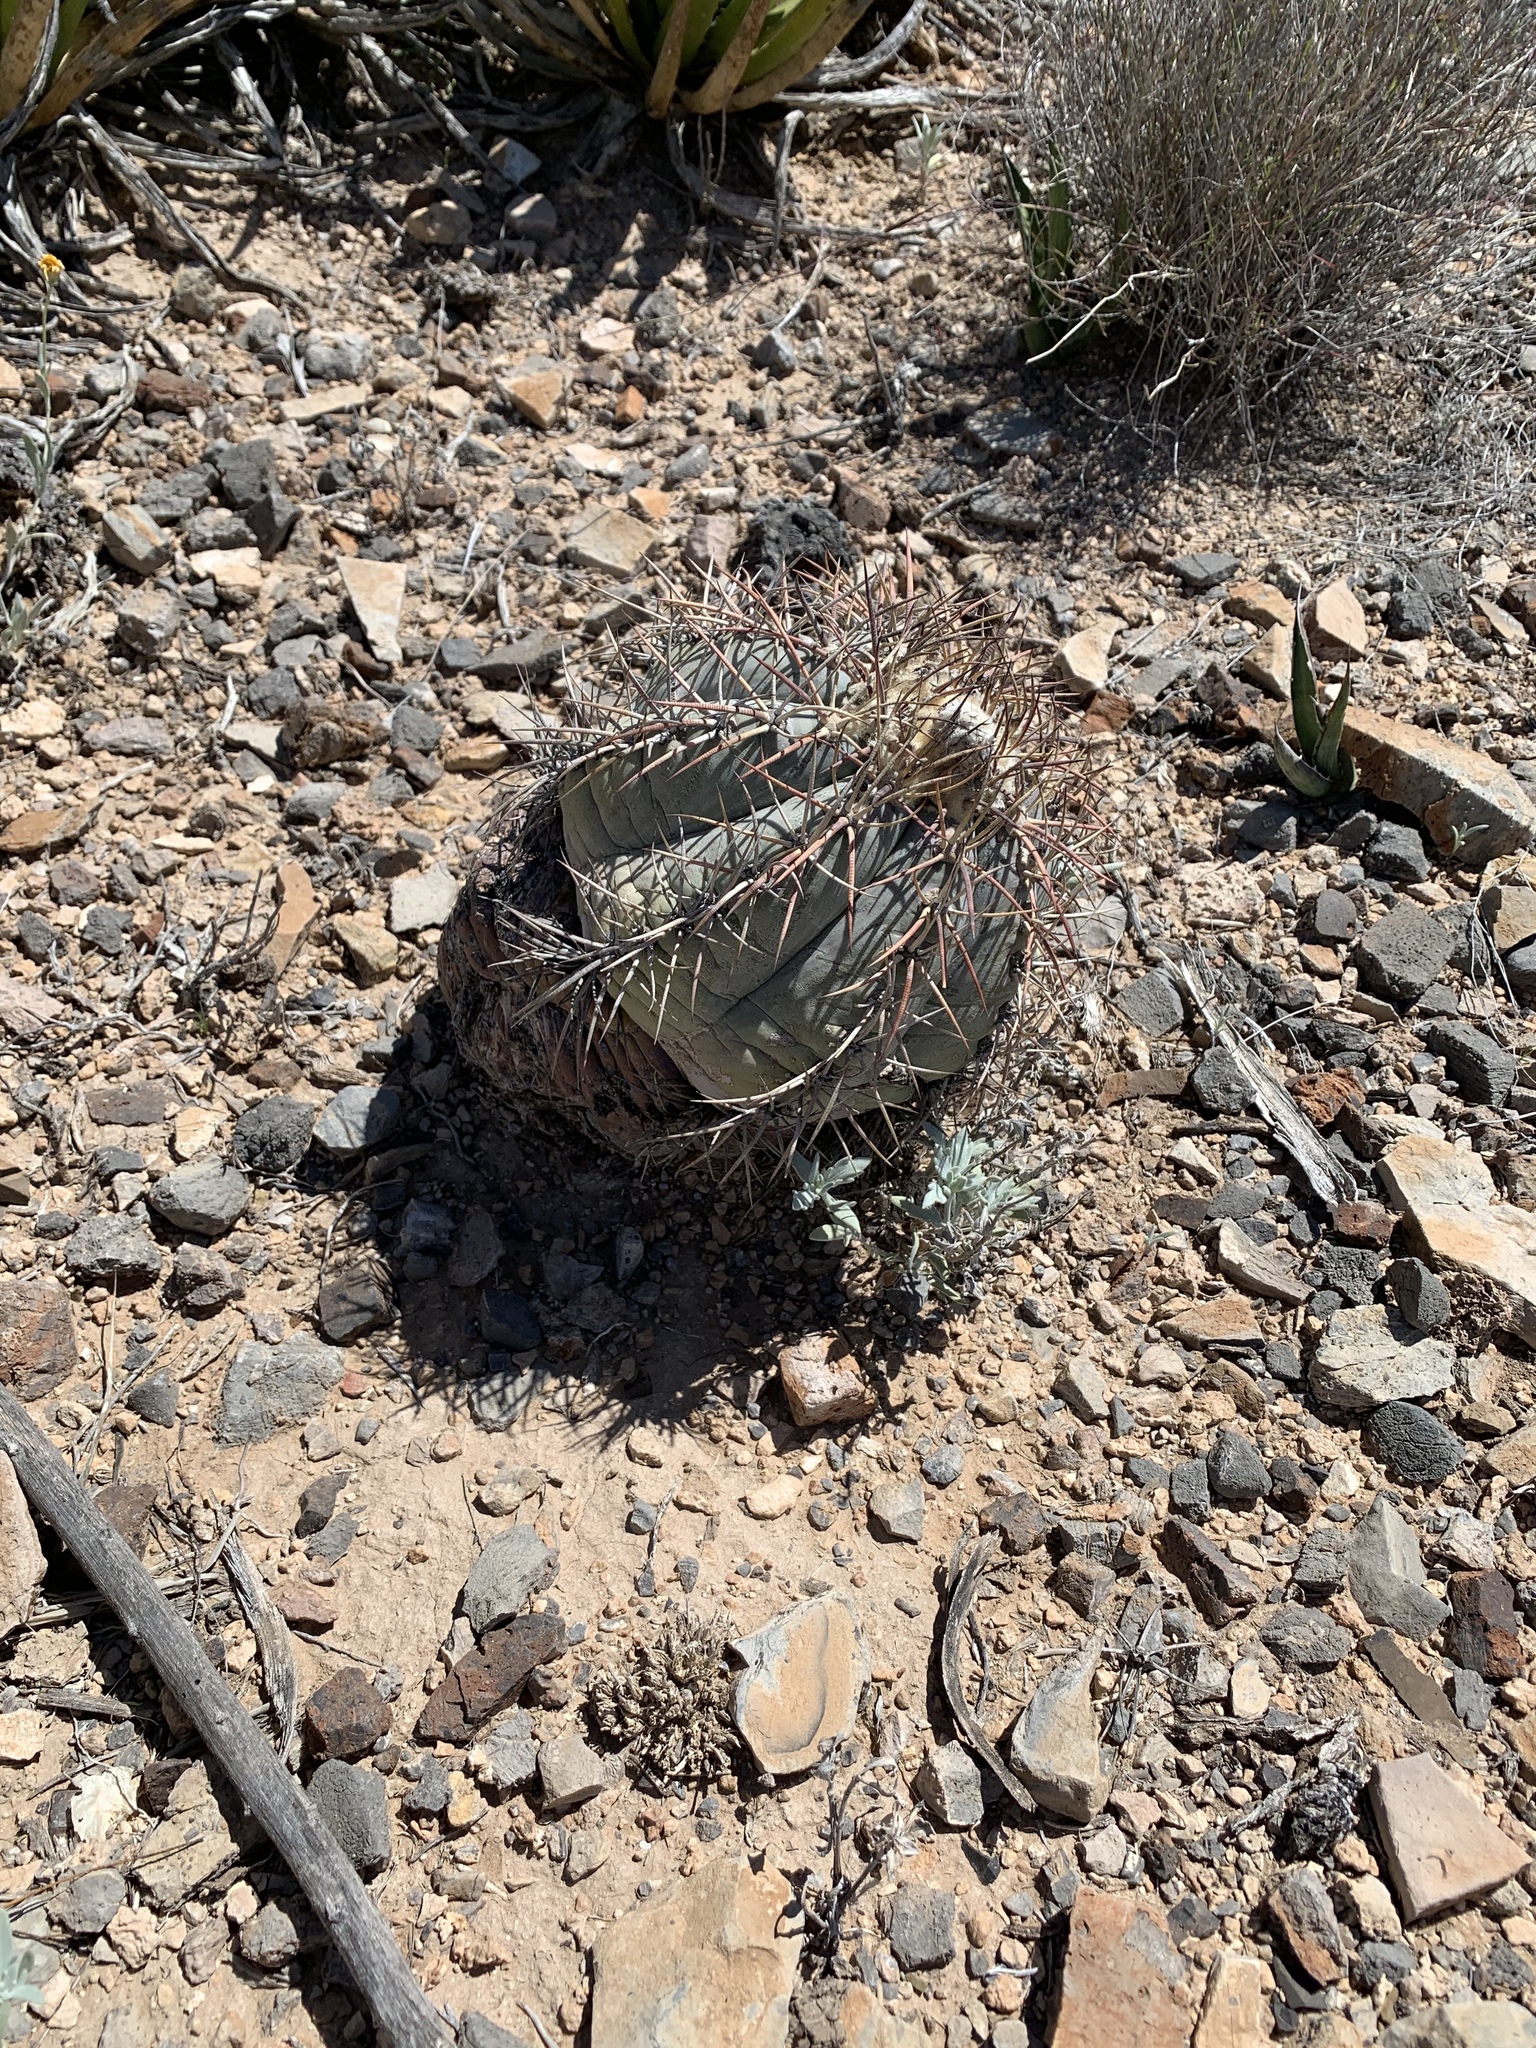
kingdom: Plantae
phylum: Tracheophyta
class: Magnoliopsida
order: Caryophyllales
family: Cactaceae
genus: Echinocactus
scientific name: Echinocactus horizonthalonius
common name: Devilshead
